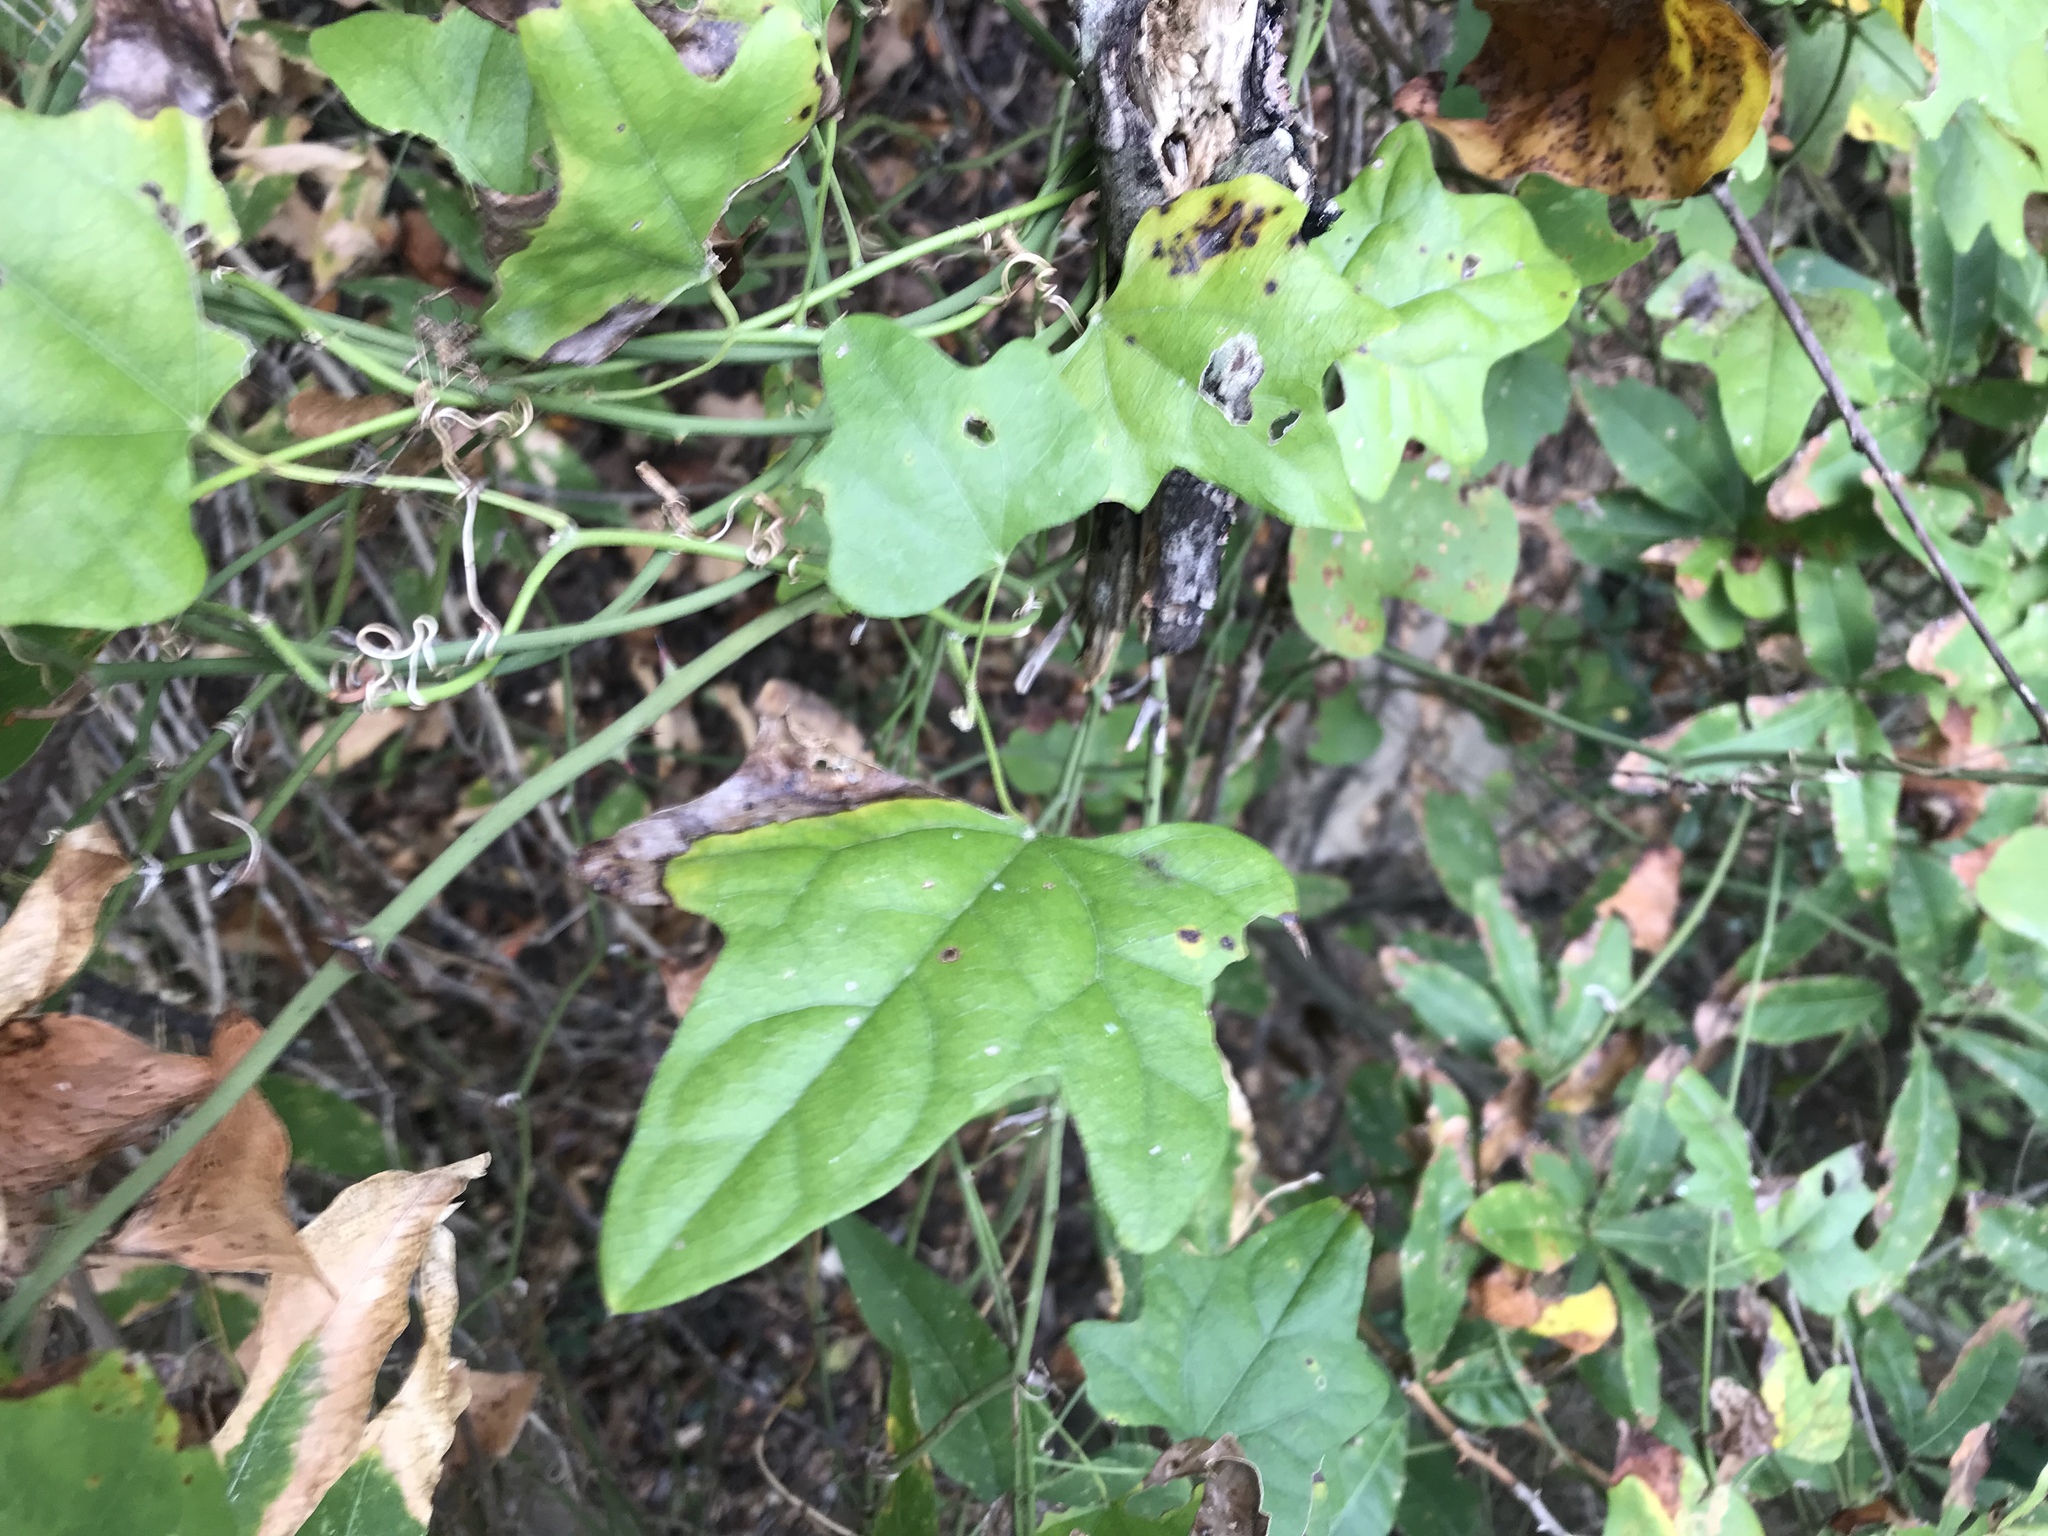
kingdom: Plantae
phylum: Tracheophyta
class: Magnoliopsida
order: Ranunculales
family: Menispermaceae
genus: Cocculus
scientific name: Cocculus carolinus
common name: Carolina moonseed
